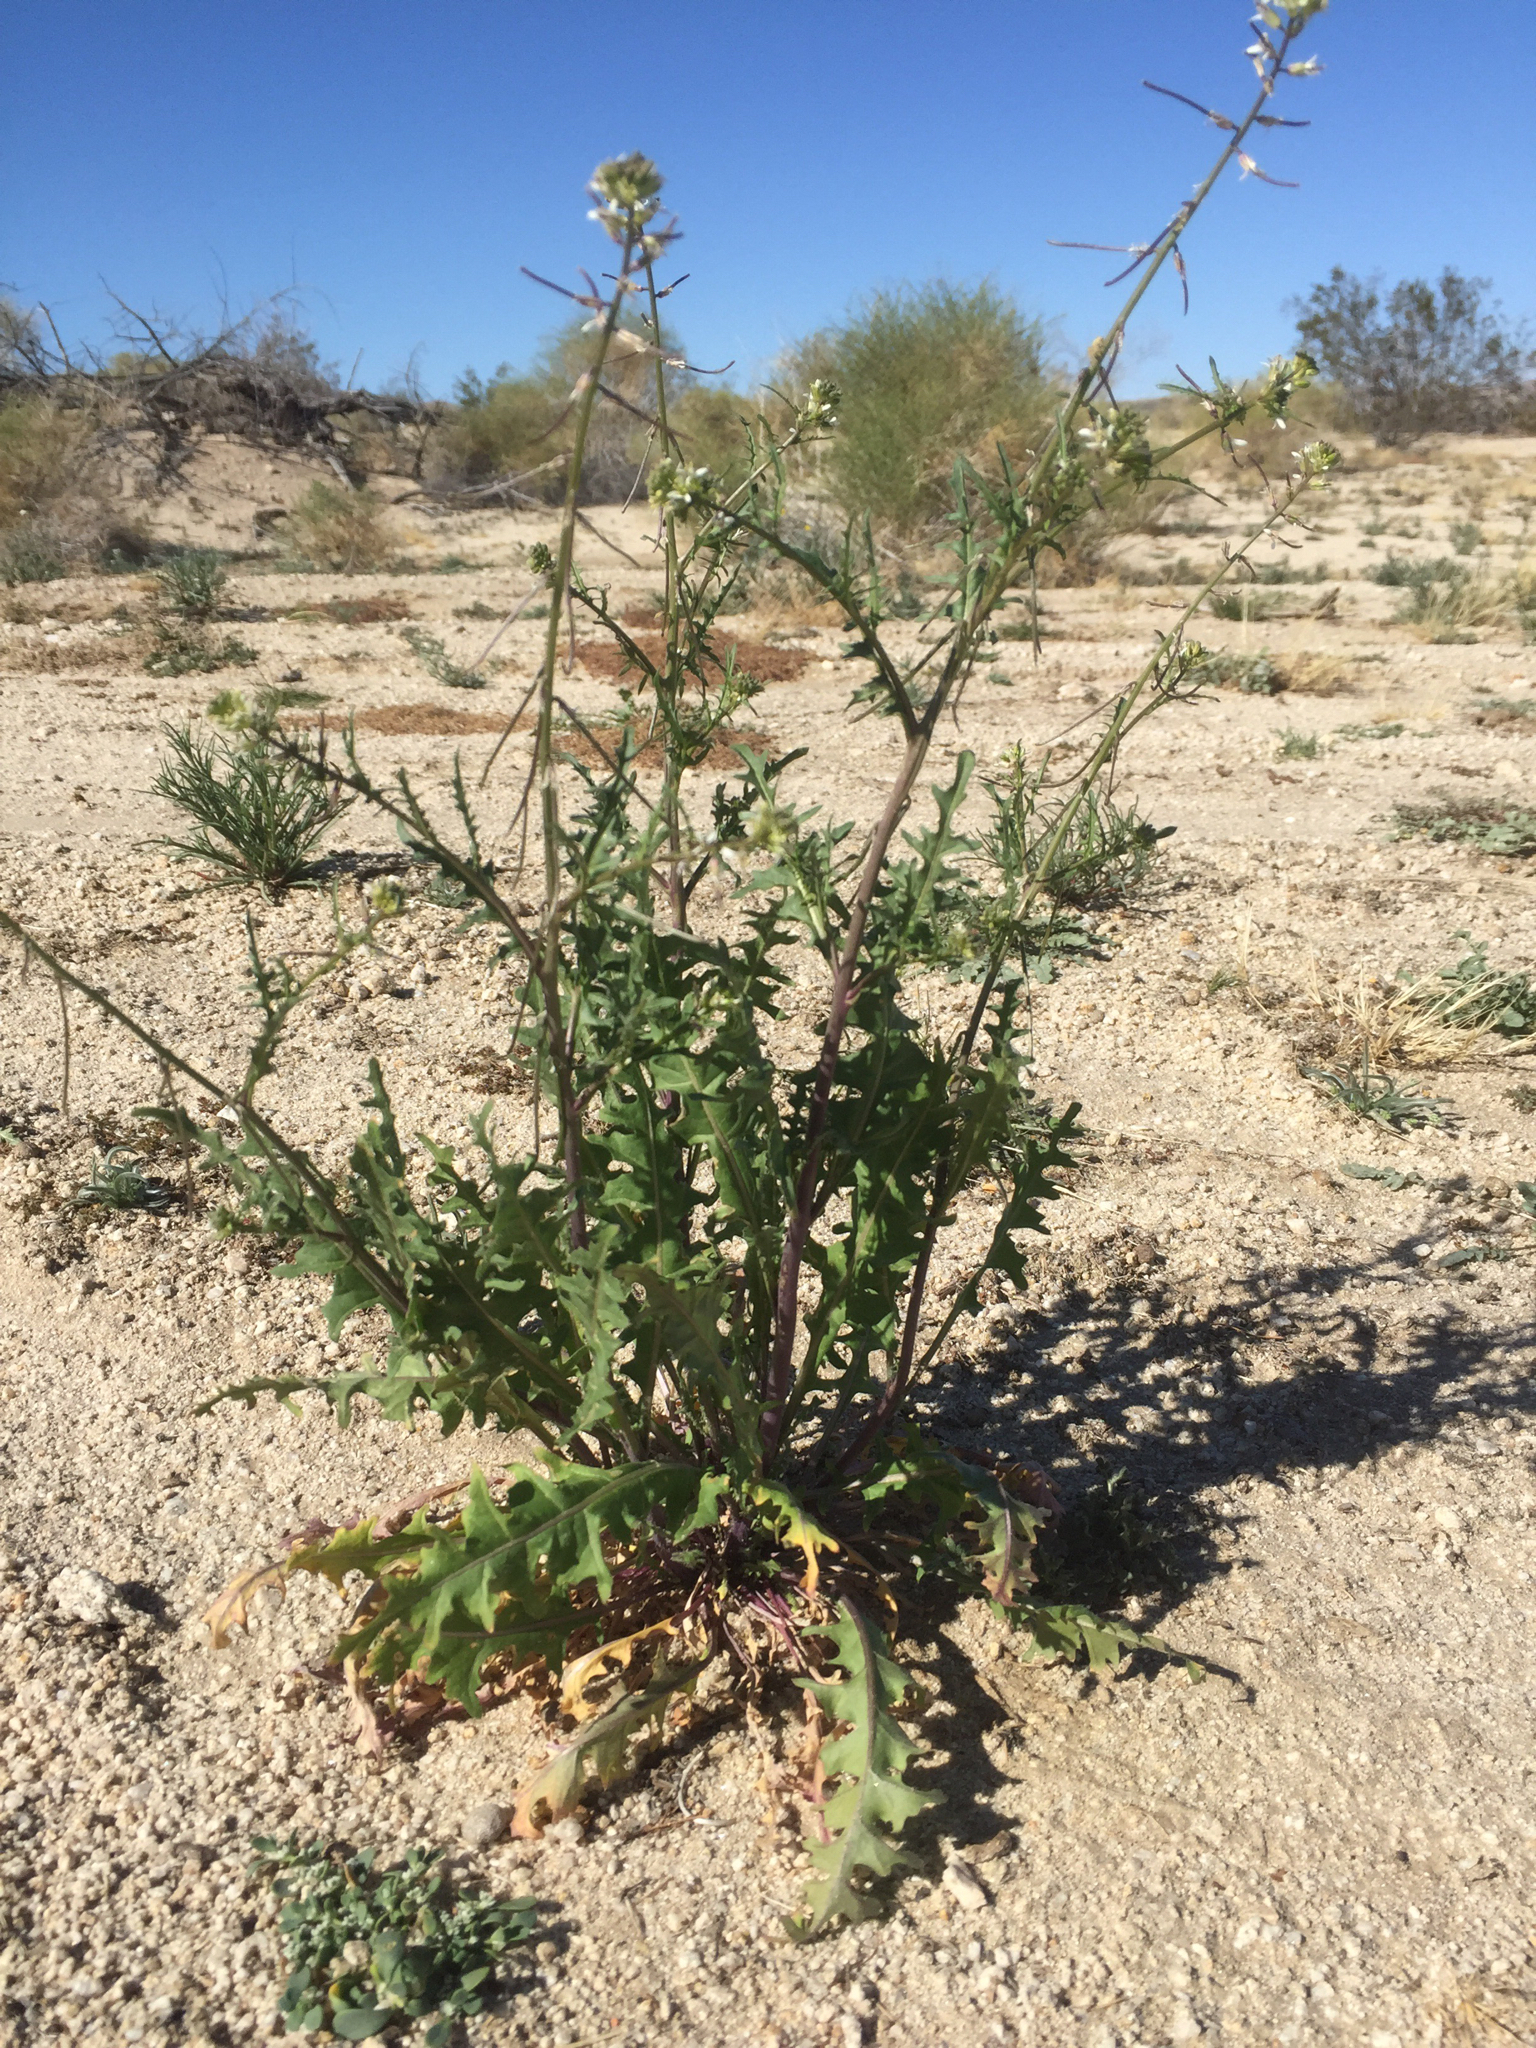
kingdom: Plantae
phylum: Tracheophyta
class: Magnoliopsida
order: Brassicales
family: Brassicaceae
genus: Streptanthus
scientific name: Streptanthus lasiophyllus
